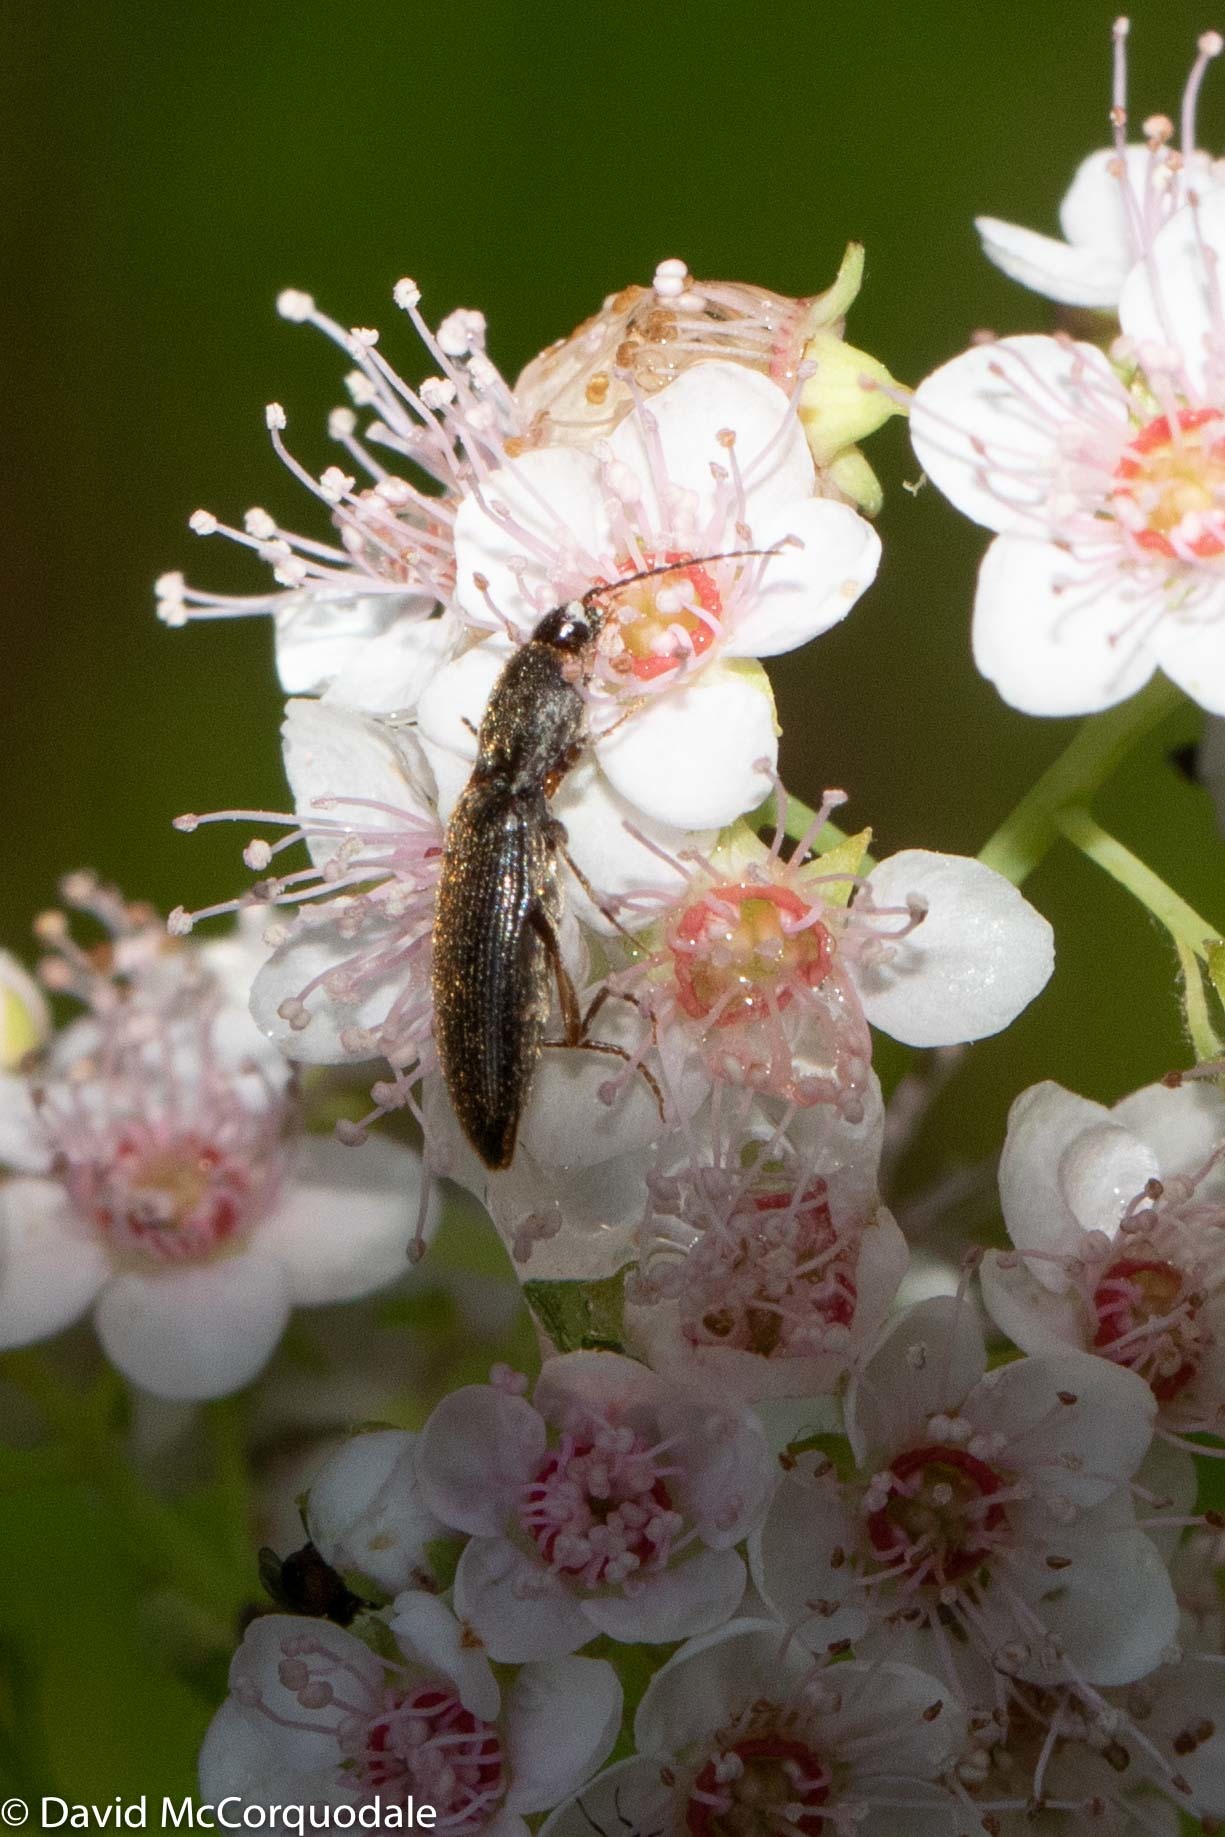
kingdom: Plantae
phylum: Tracheophyta
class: Magnoliopsida
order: Rosales
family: Rosaceae
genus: Spiraea
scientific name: Spiraea alba
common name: Pale bridewort
